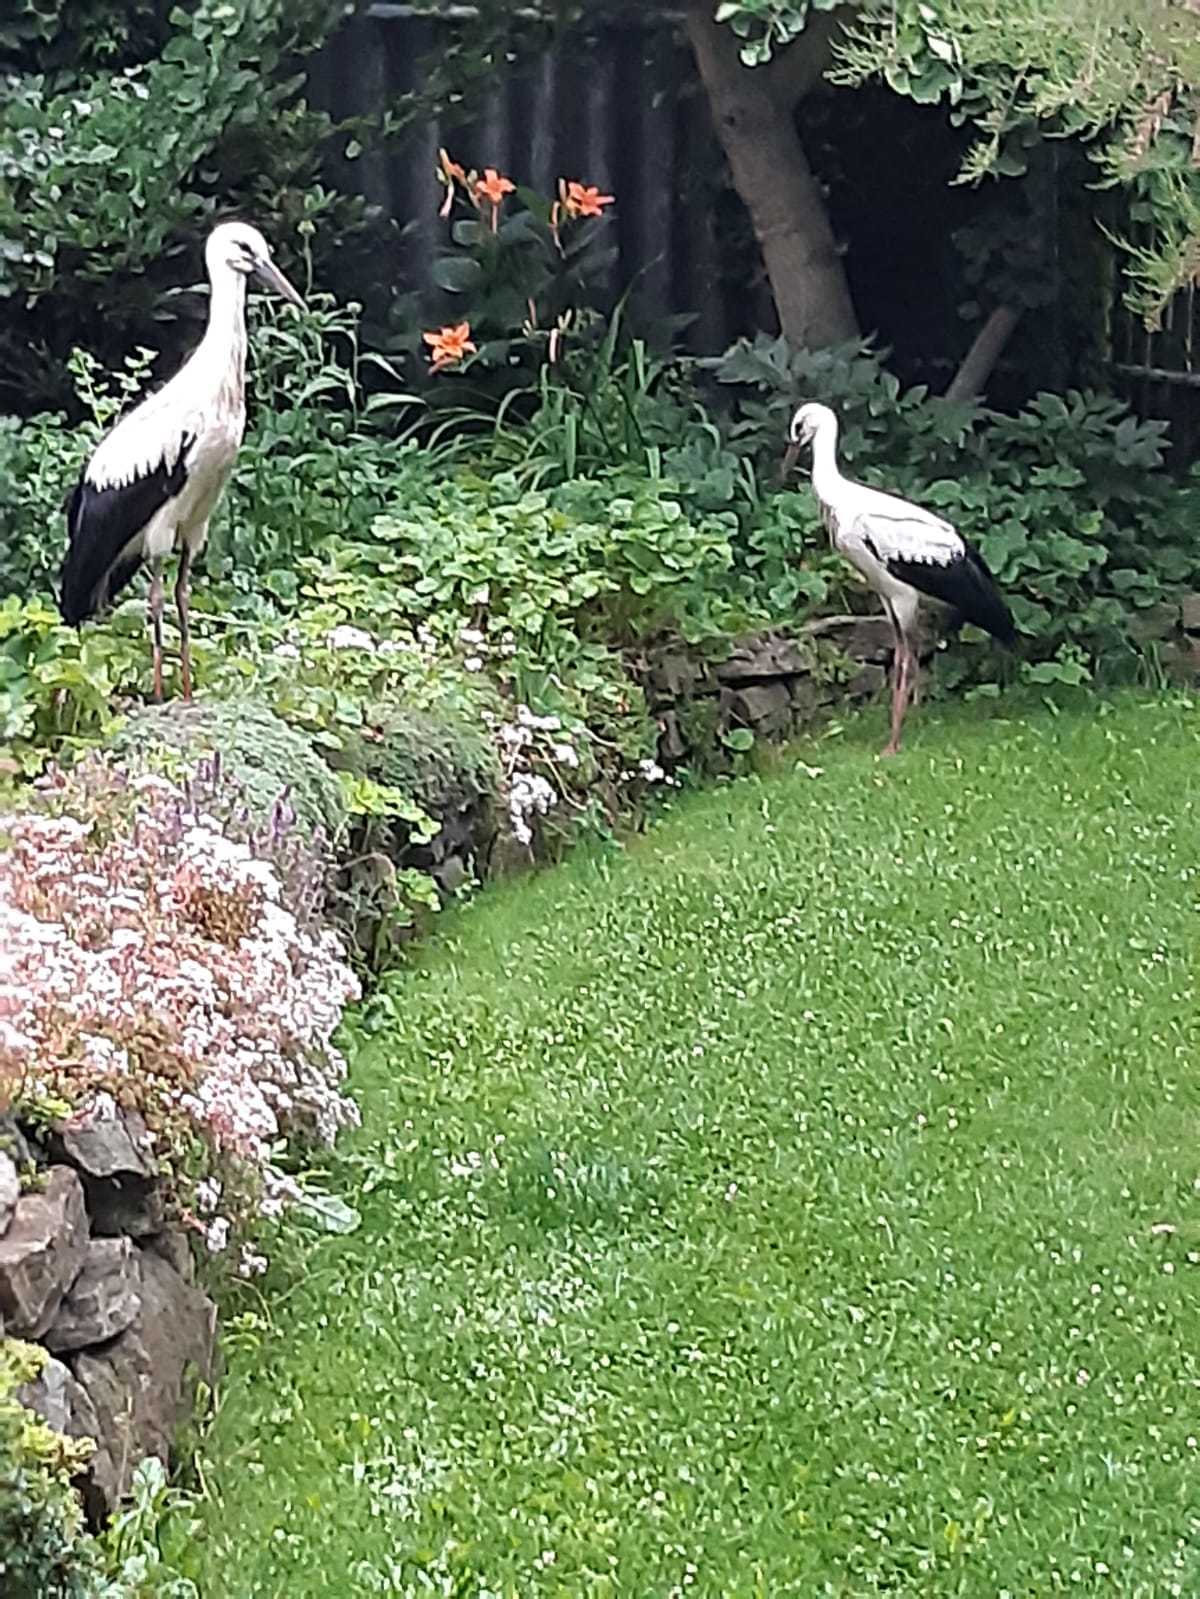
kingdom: Animalia
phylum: Chordata
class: Aves
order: Ciconiiformes
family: Ciconiidae
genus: Ciconia
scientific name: Ciconia ciconia
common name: White stork
